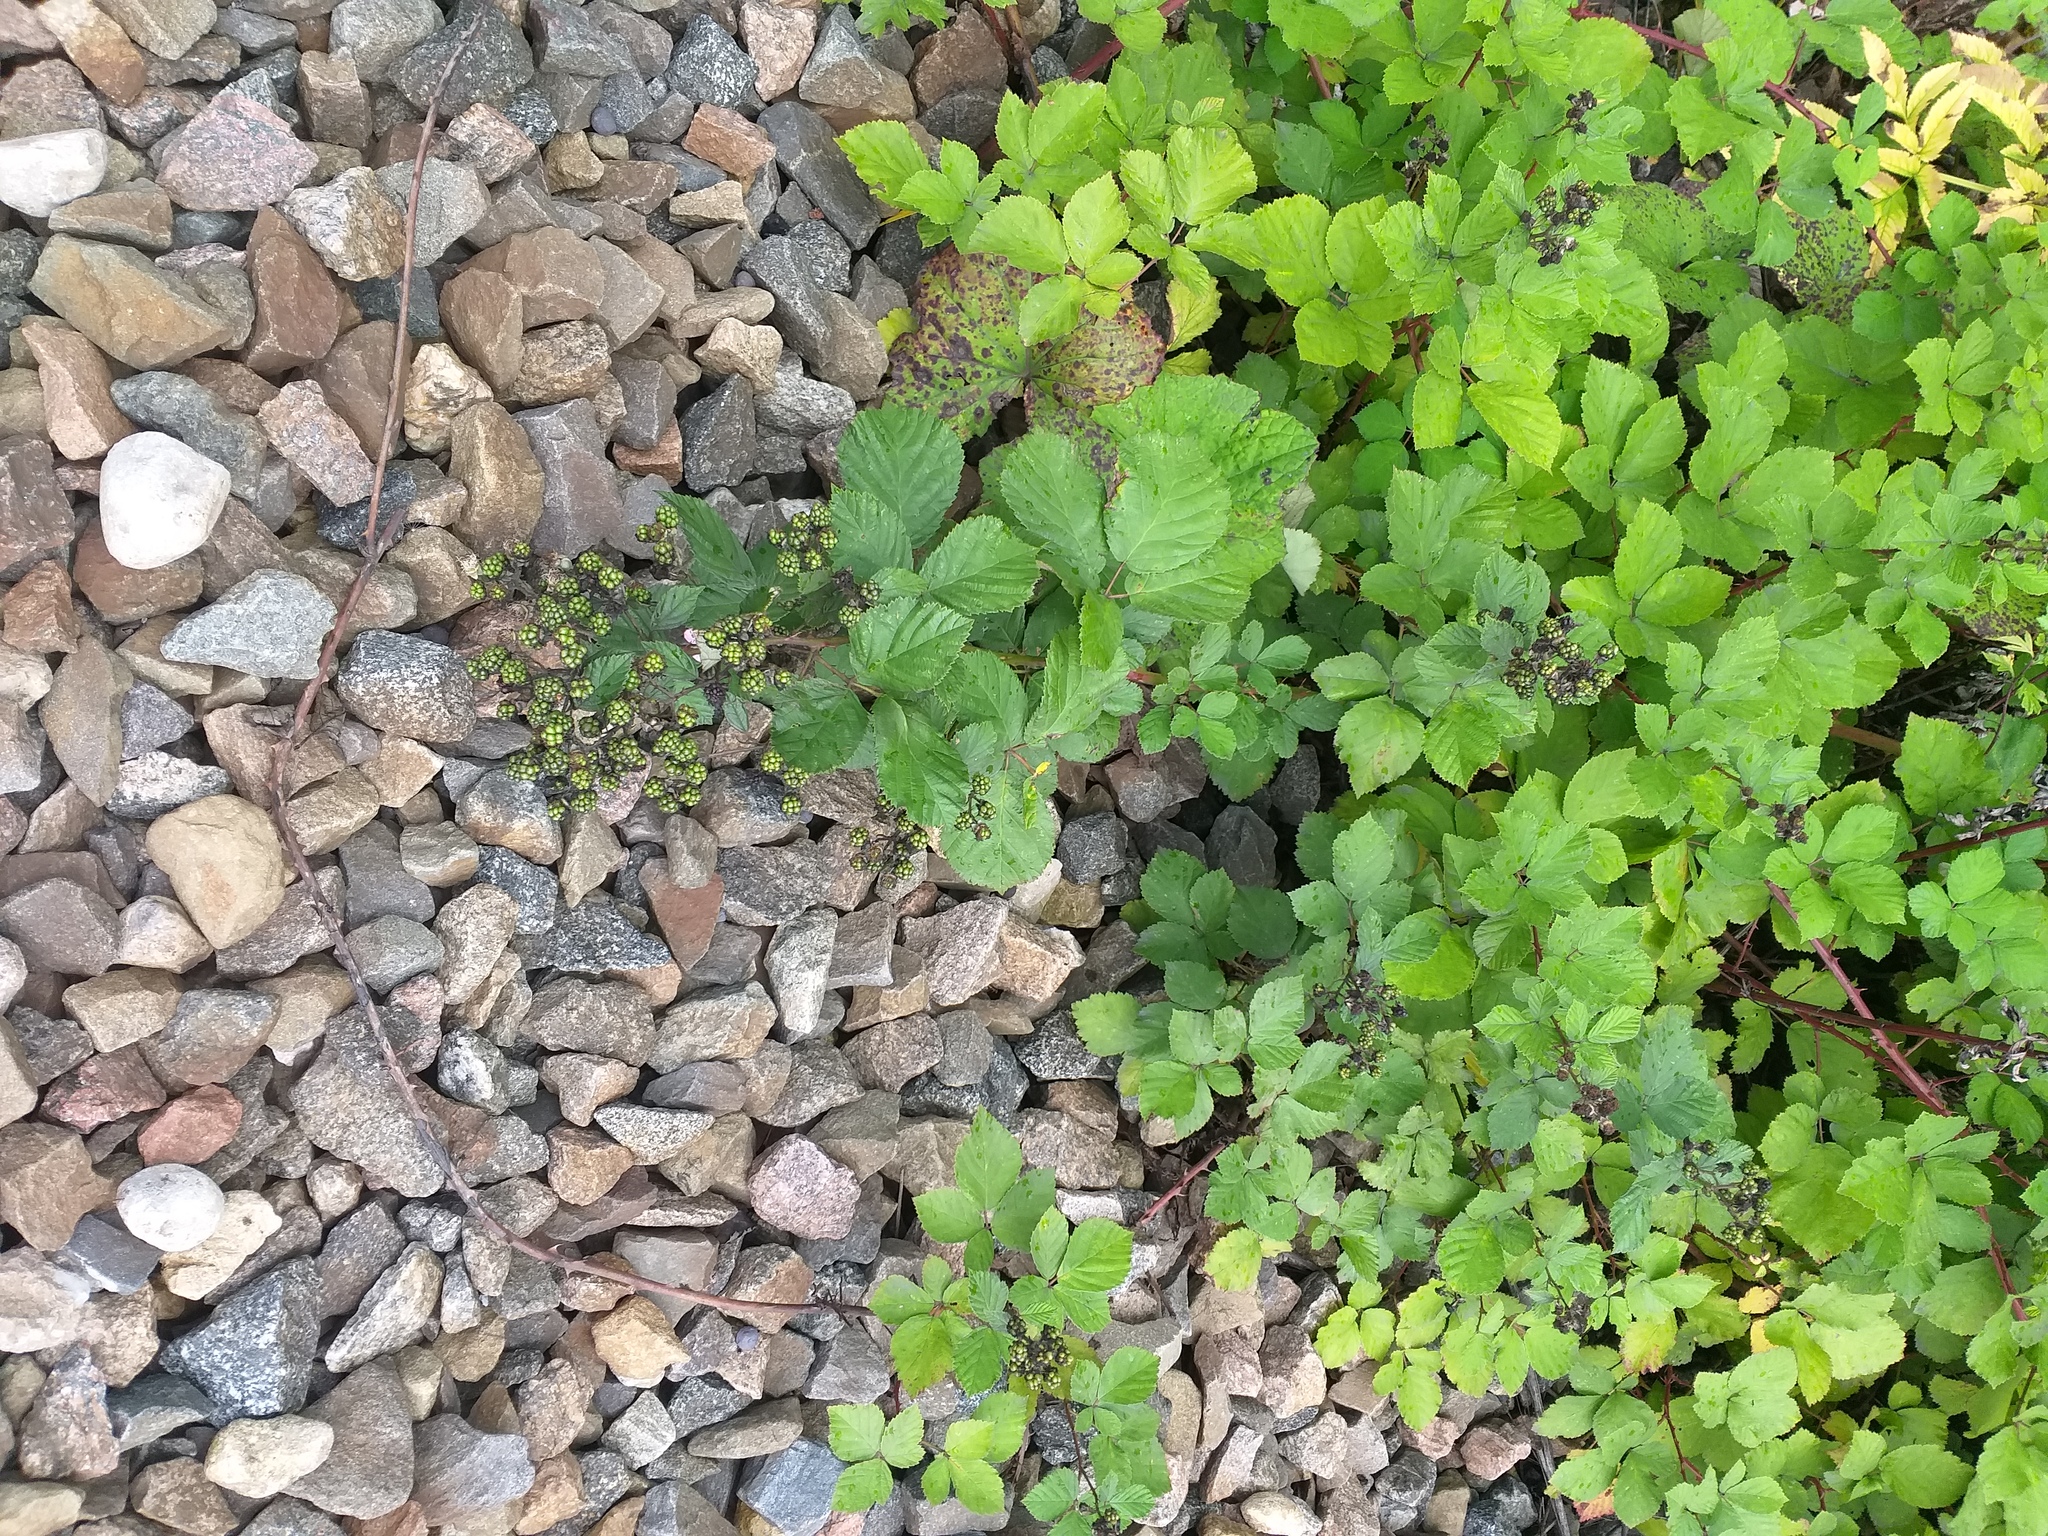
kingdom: Plantae
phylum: Tracheophyta
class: Magnoliopsida
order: Rosales
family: Rosaceae
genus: Rubus
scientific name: Rubus procerus
